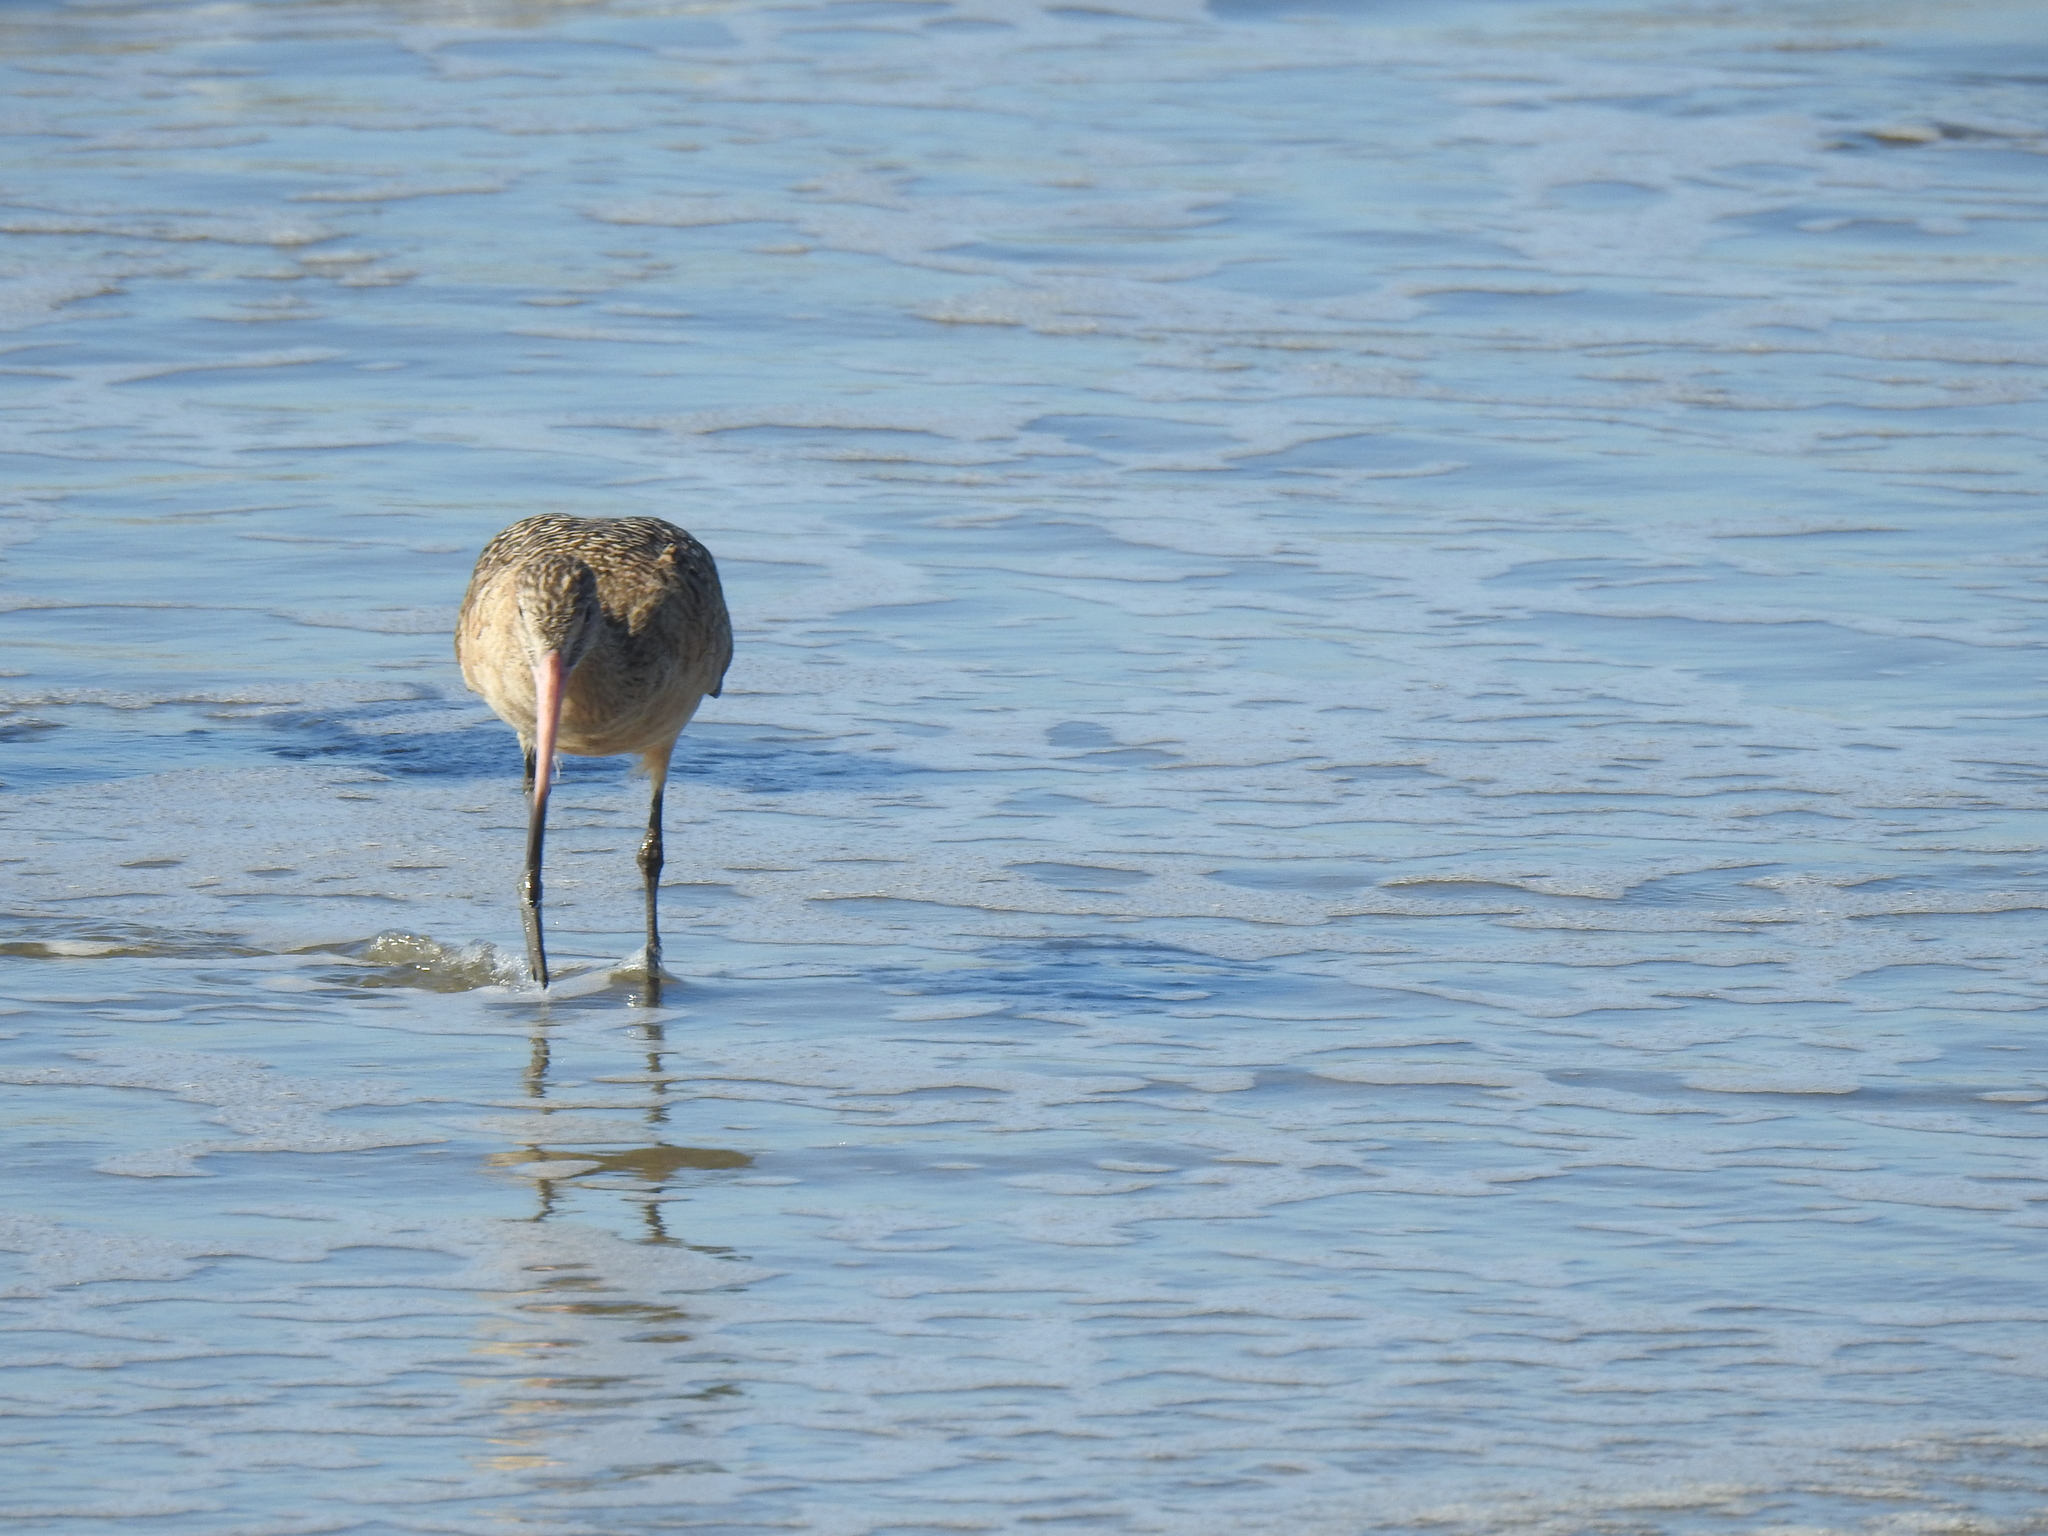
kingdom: Animalia
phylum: Chordata
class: Aves
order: Charadriiformes
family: Scolopacidae
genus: Limosa
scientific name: Limosa fedoa
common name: Marbled godwit
